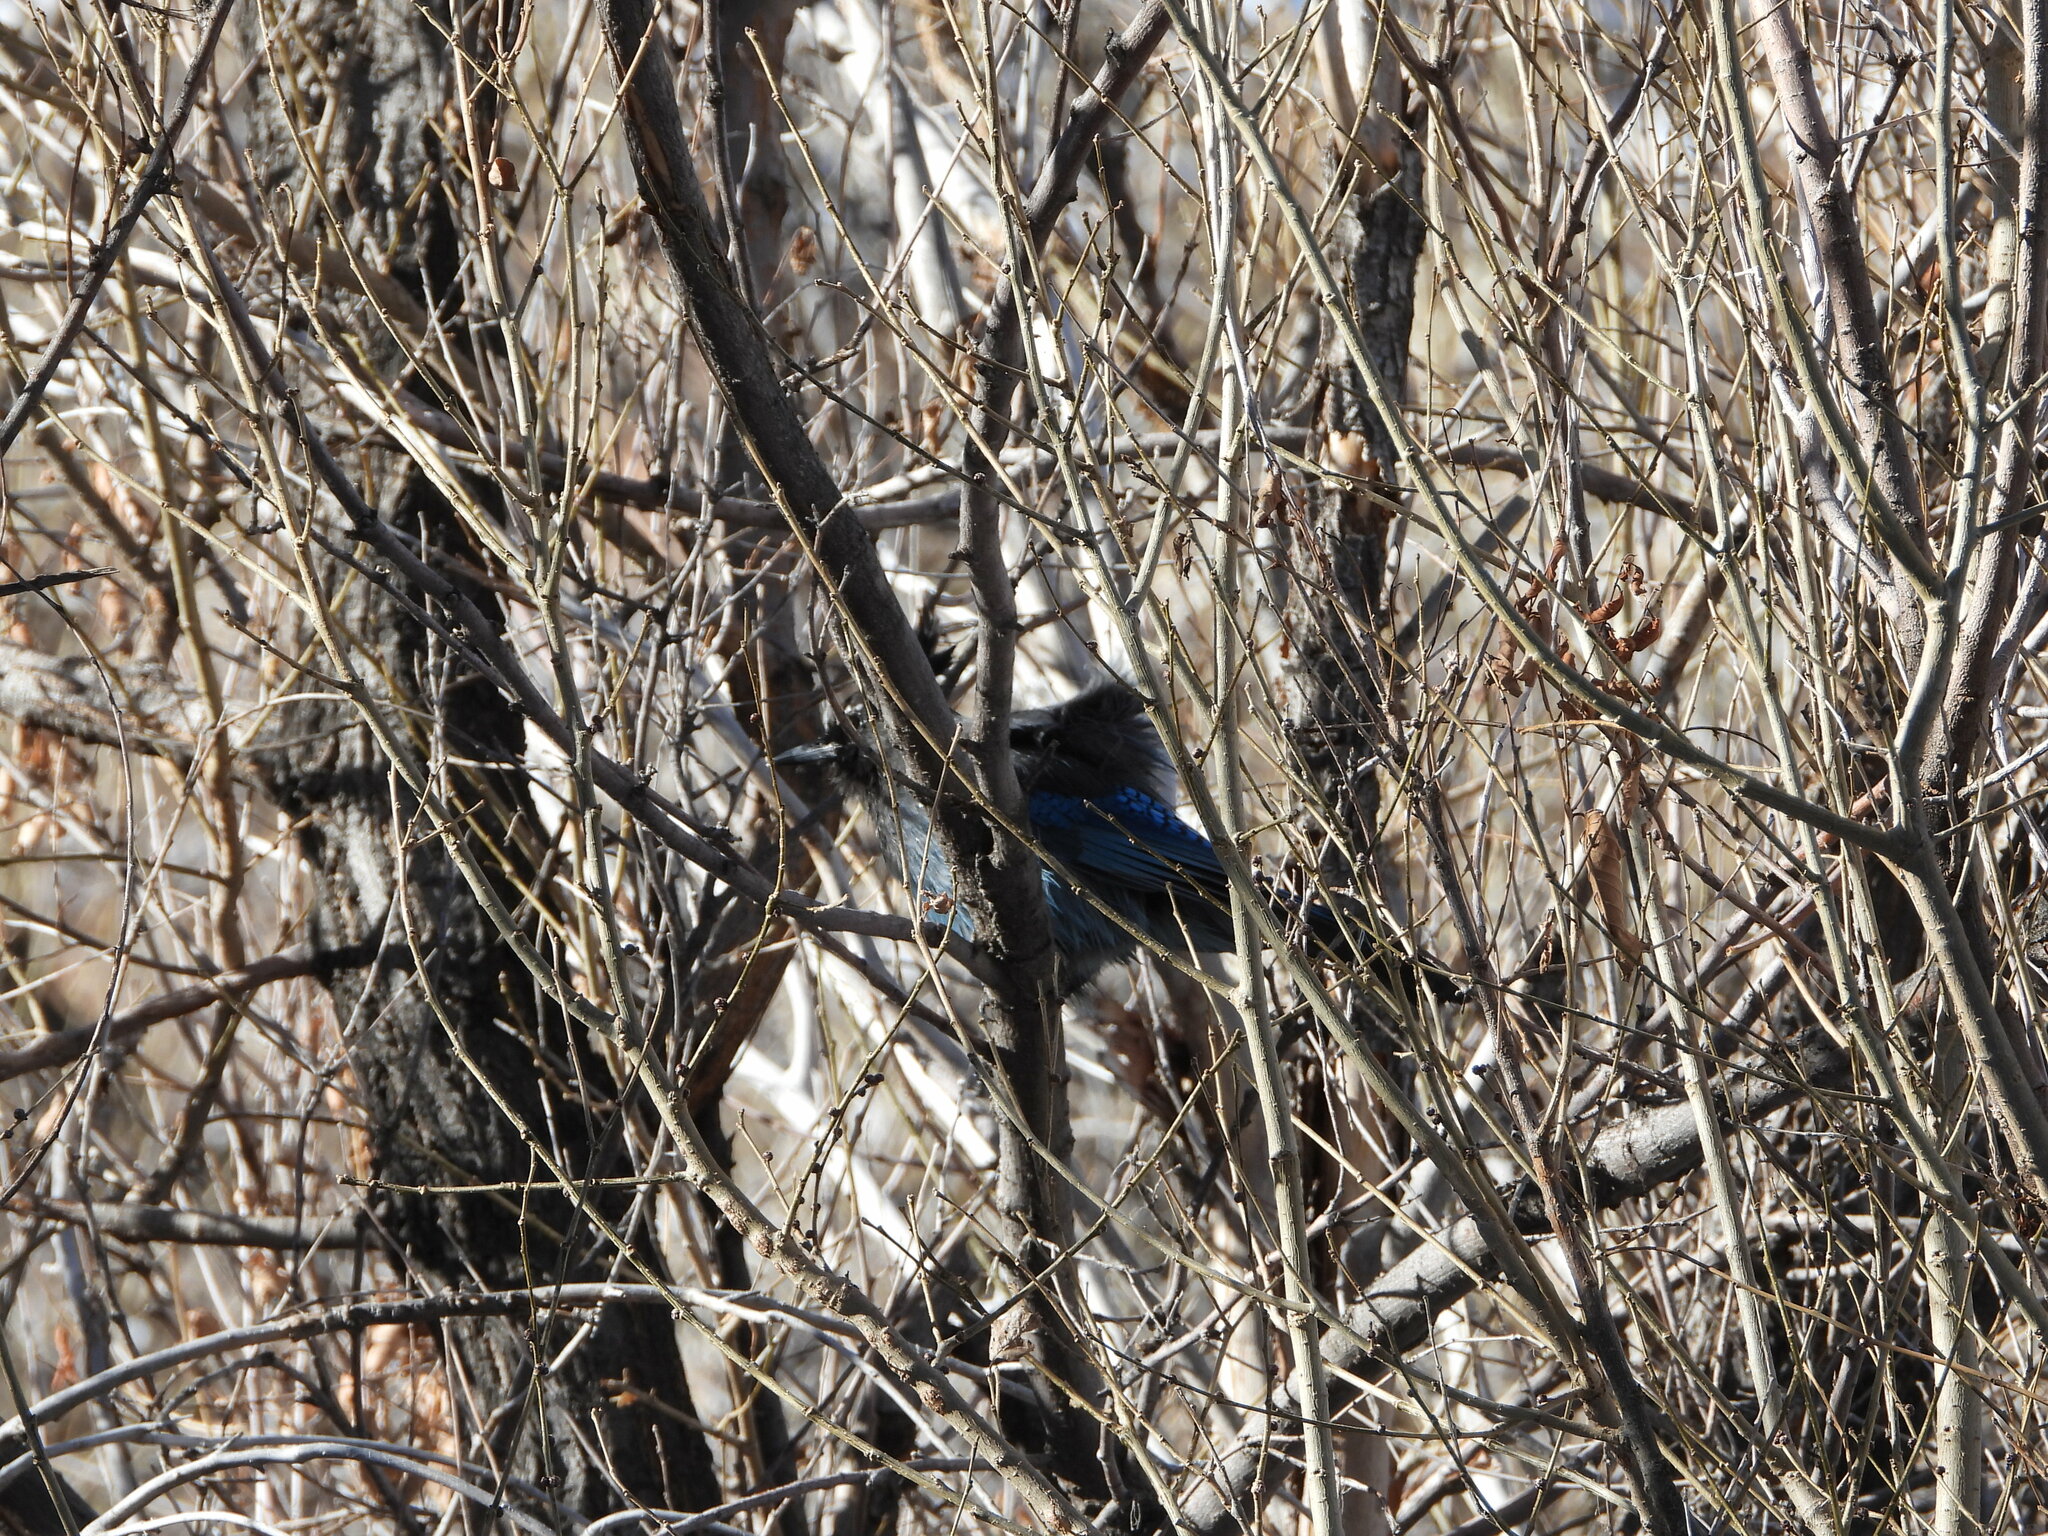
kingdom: Animalia
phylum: Chordata
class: Aves
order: Passeriformes
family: Corvidae
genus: Cyanocitta
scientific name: Cyanocitta stelleri
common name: Steller's jay
